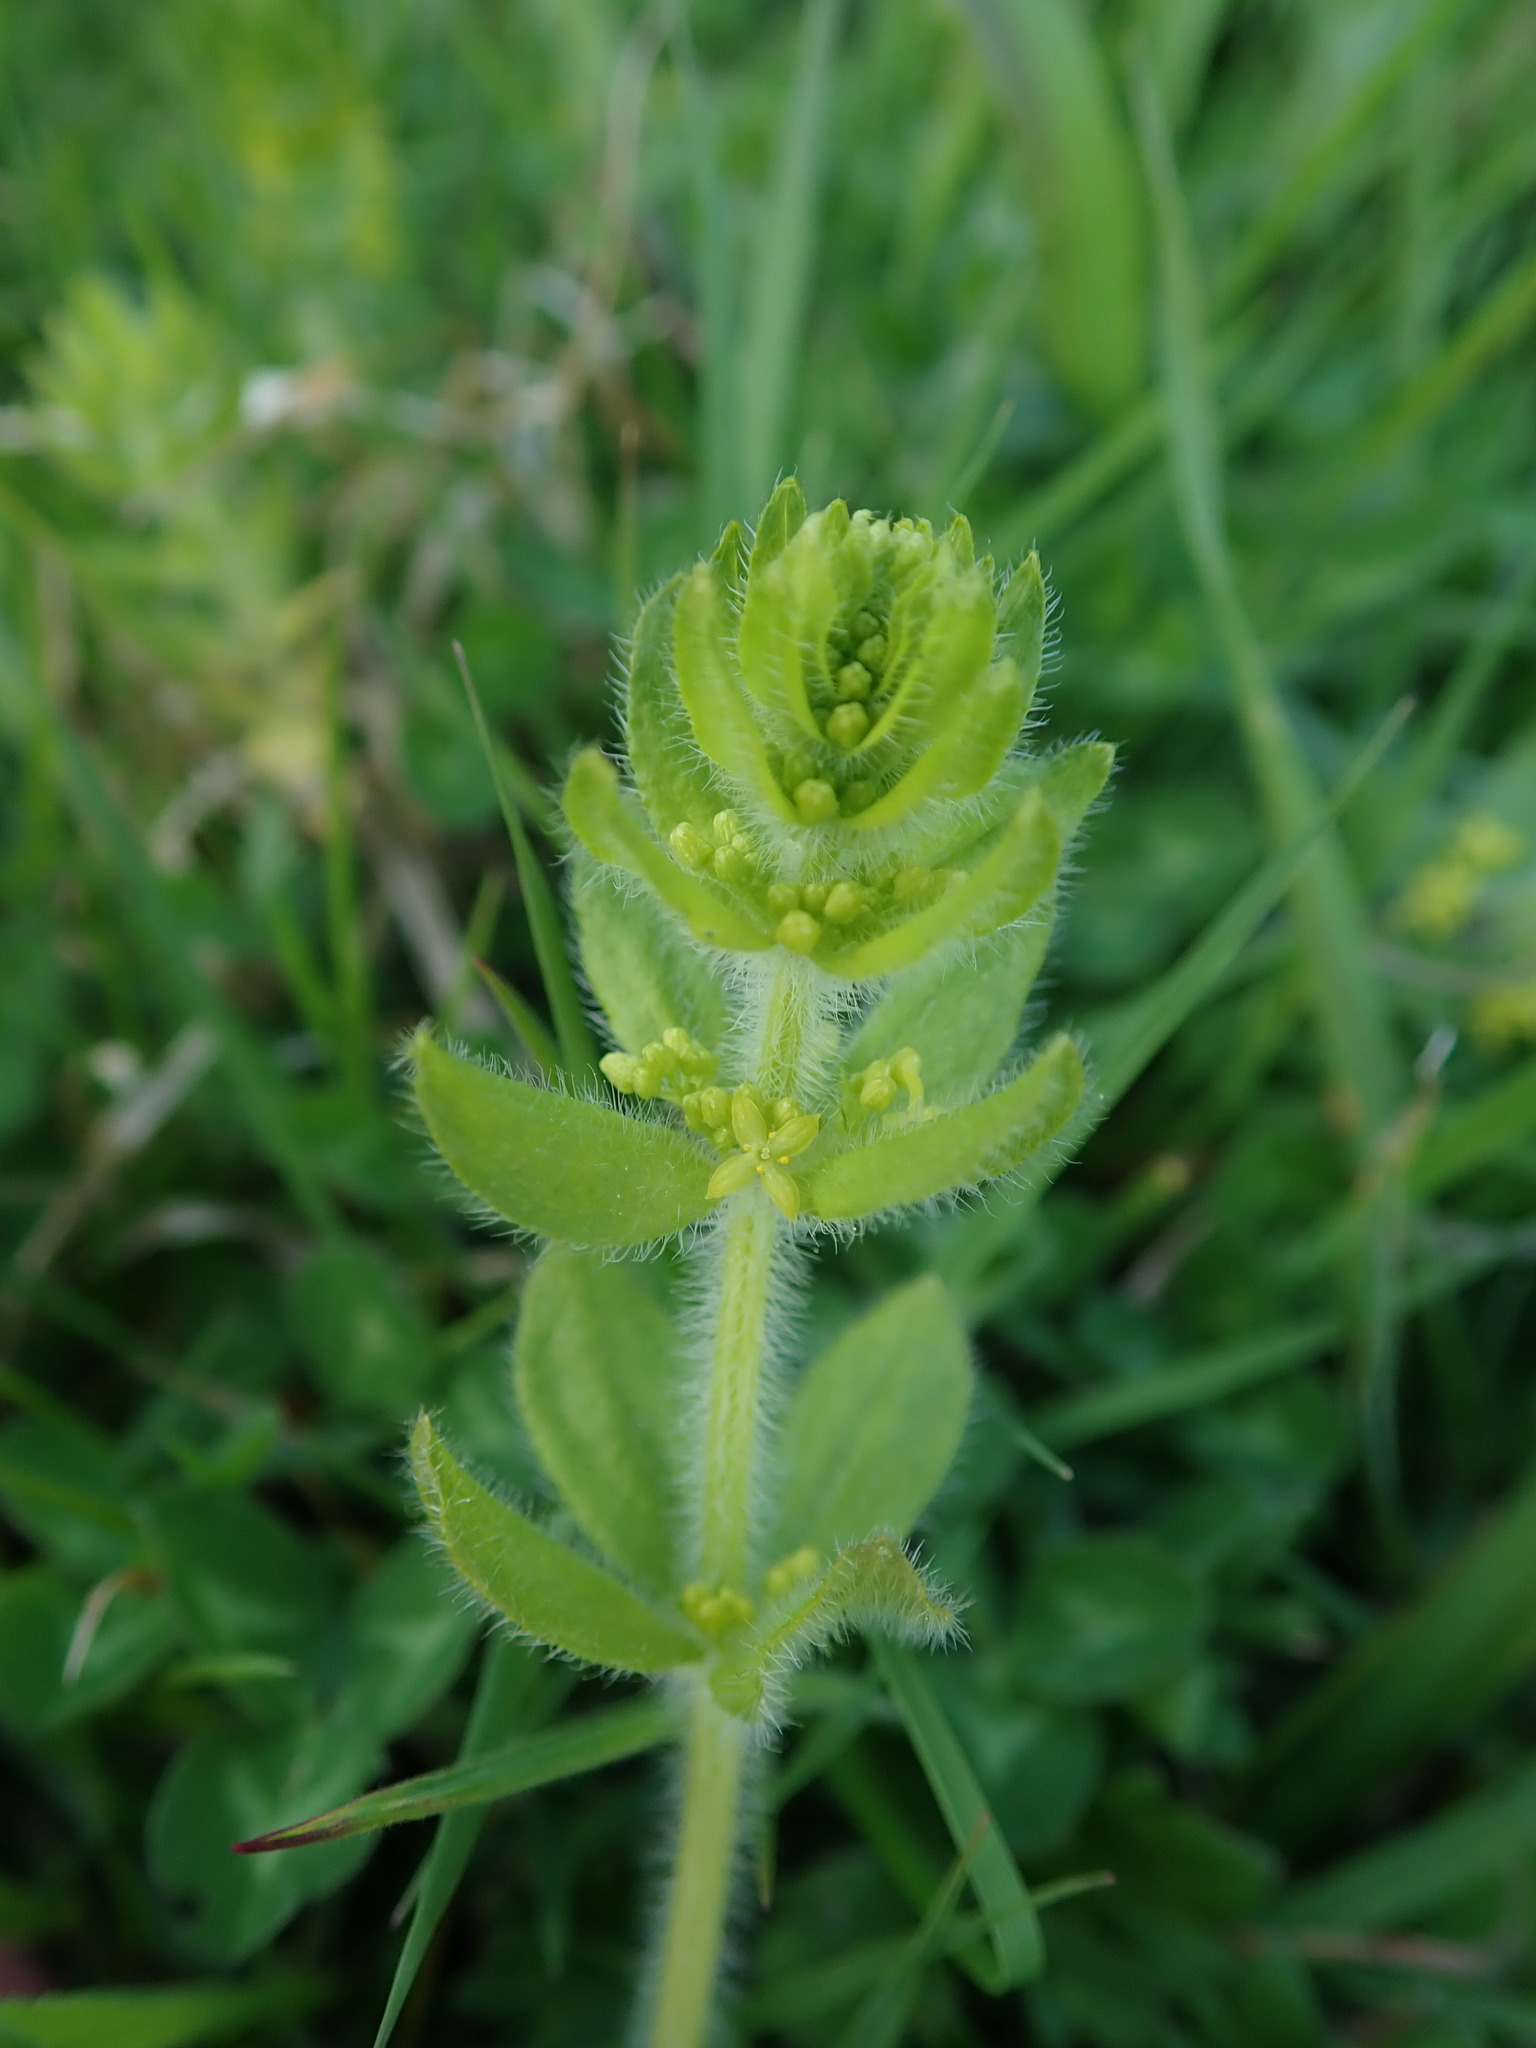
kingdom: Plantae
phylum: Tracheophyta
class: Magnoliopsida
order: Gentianales
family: Rubiaceae
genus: Cruciata
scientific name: Cruciata laevipes
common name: Crosswort
